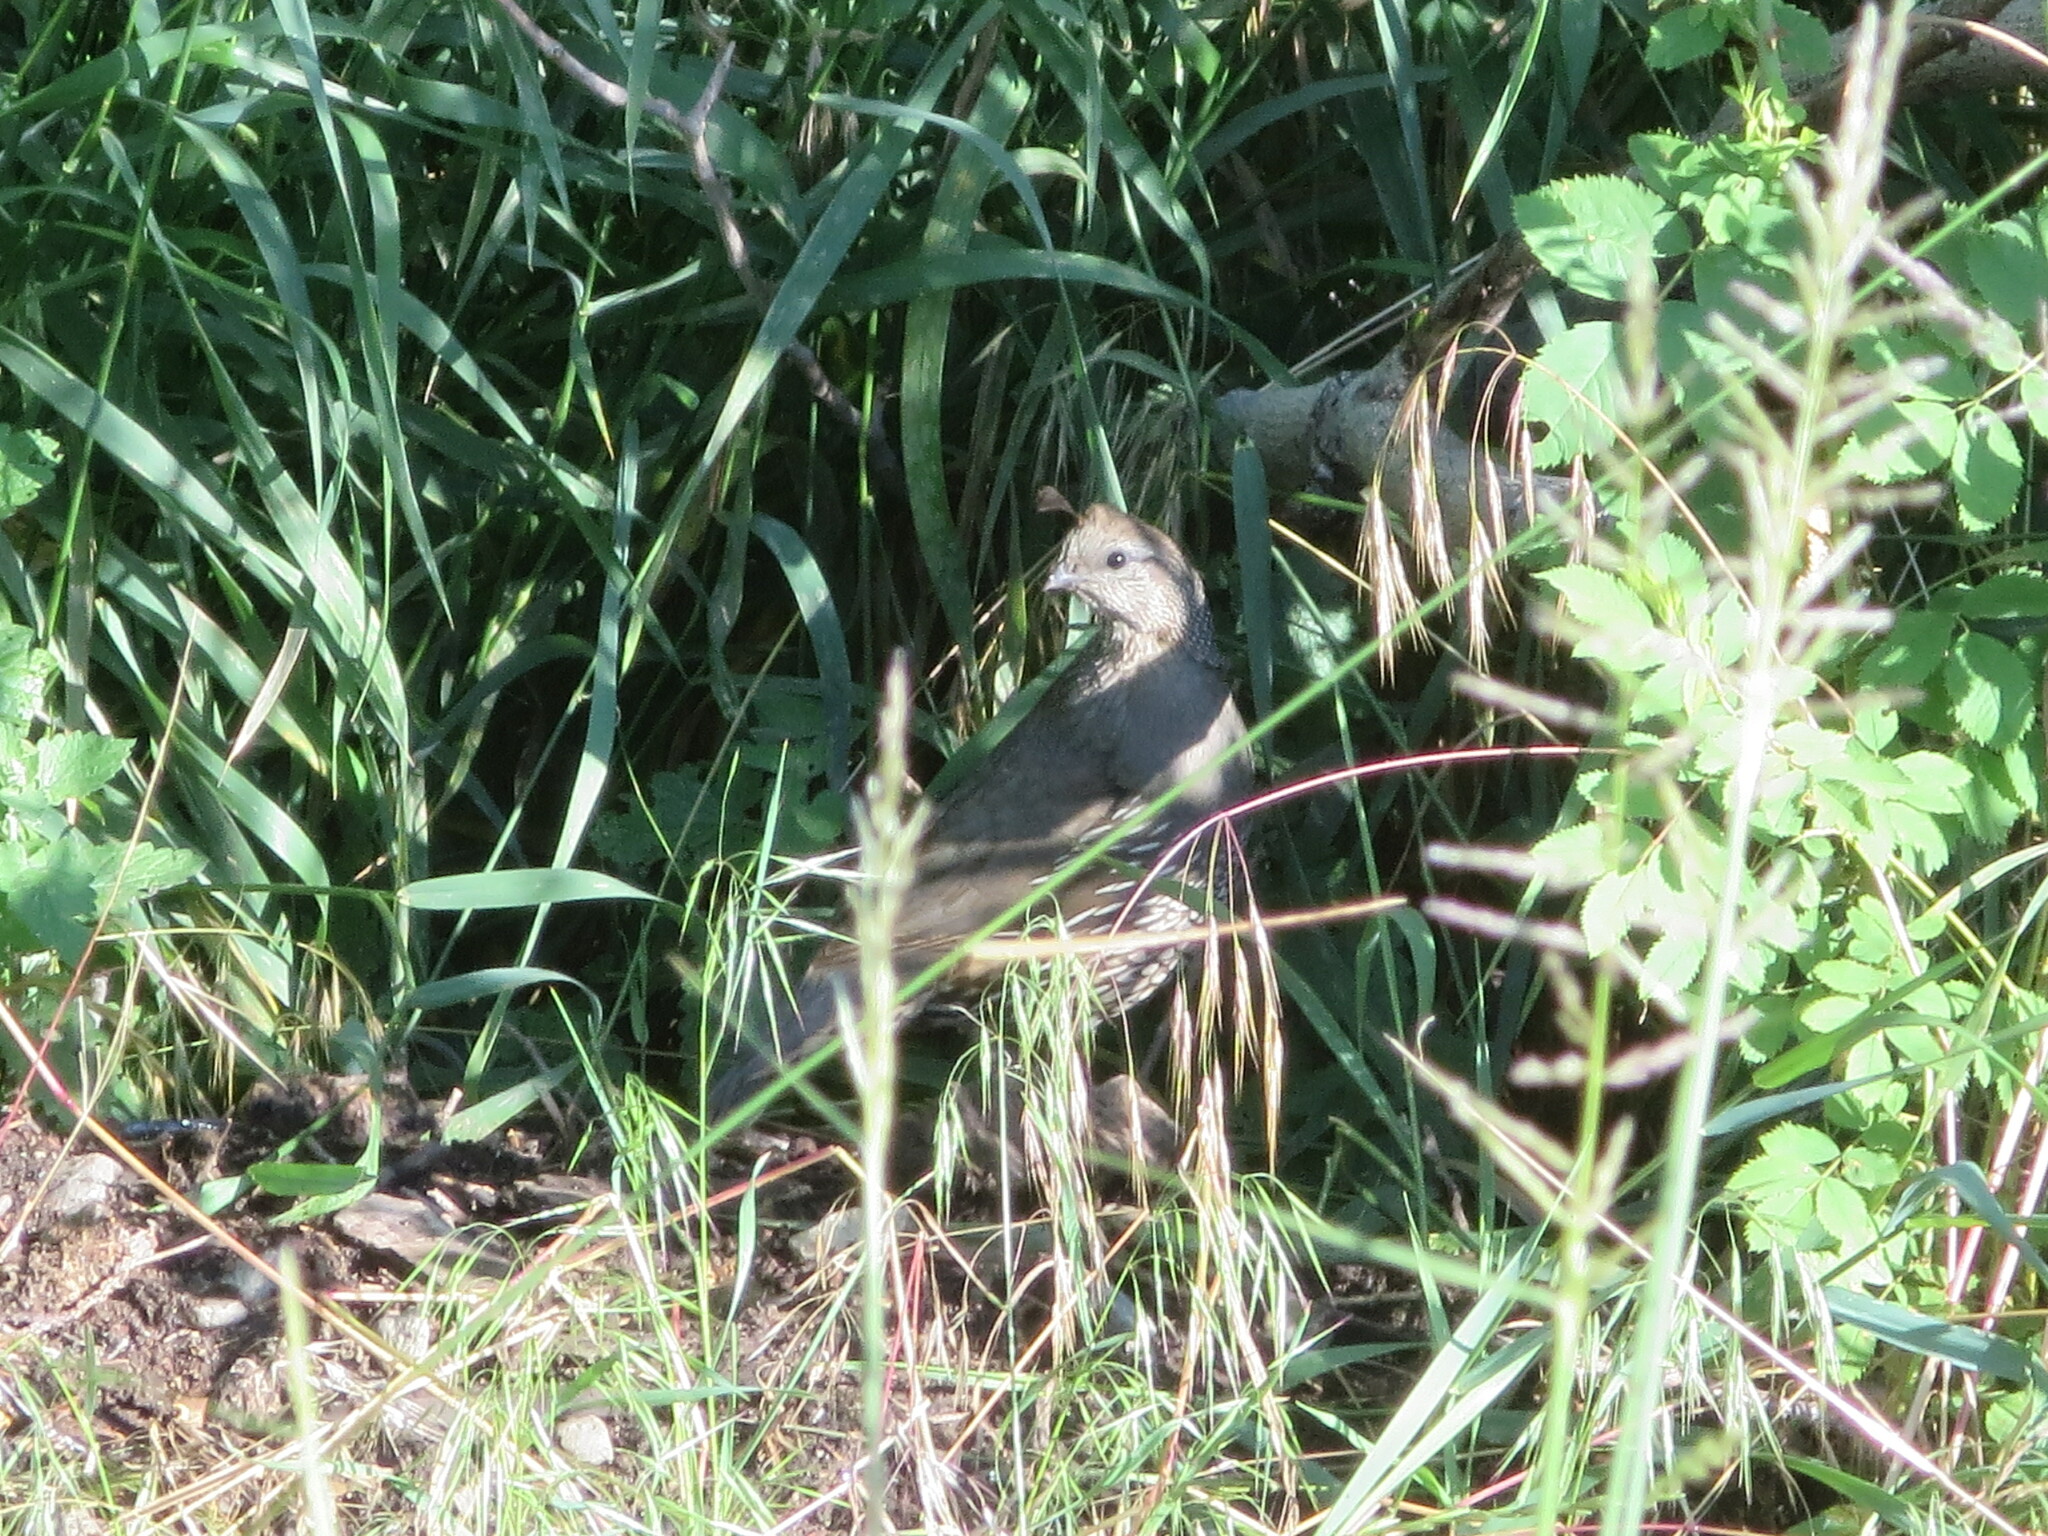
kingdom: Animalia
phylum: Chordata
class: Aves
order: Galliformes
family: Odontophoridae
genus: Callipepla
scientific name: Callipepla californica
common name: California quail
